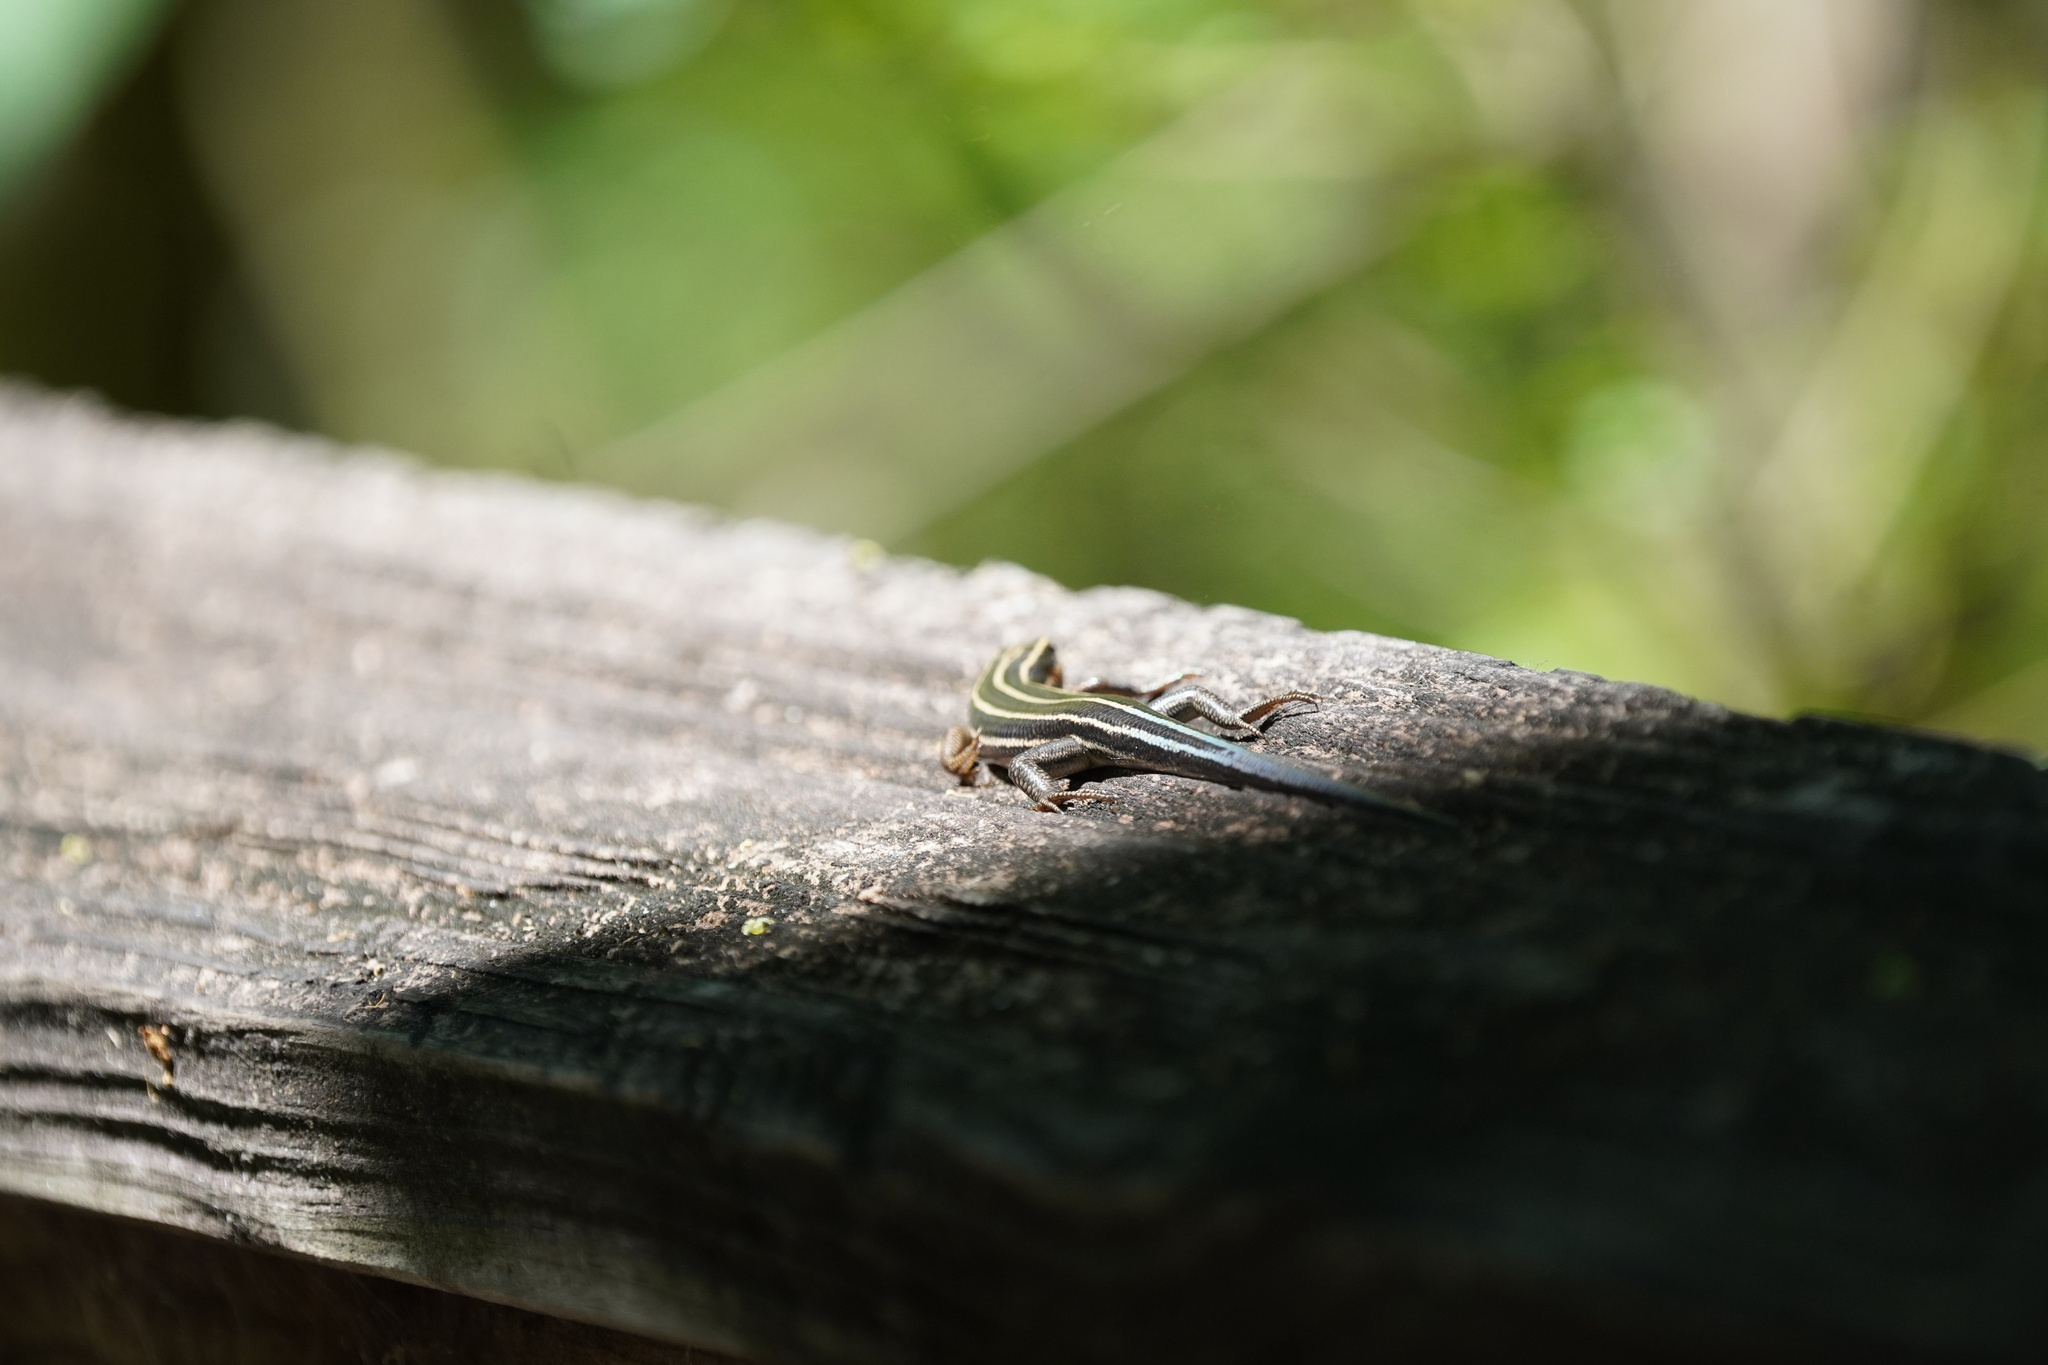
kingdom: Animalia
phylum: Chordata
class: Squamata
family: Scincidae
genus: Plestiodon
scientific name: Plestiodon fasciatus
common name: Five-lined skink
